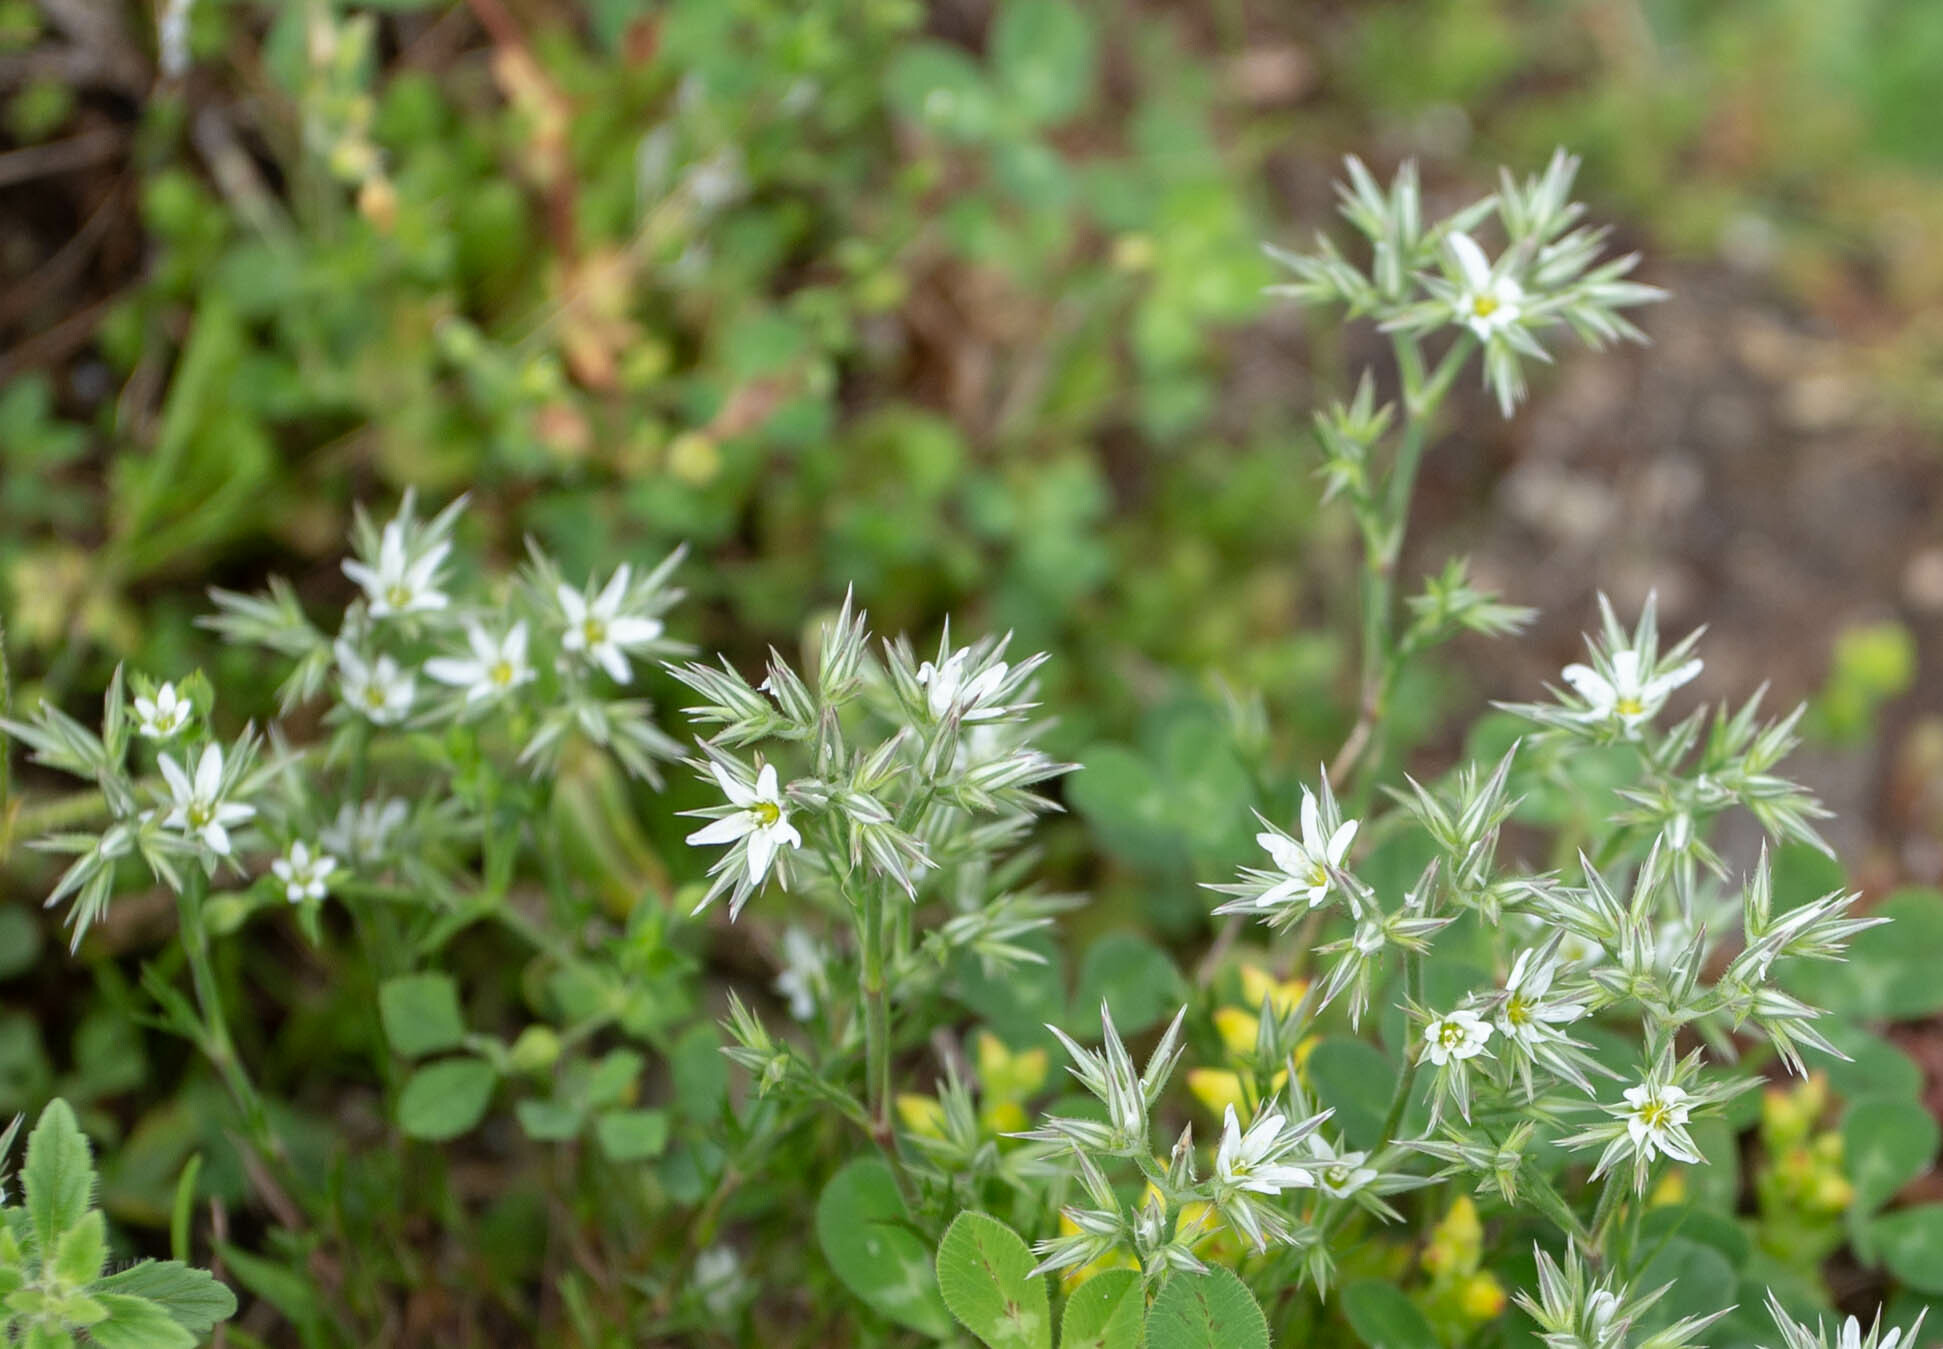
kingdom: Plantae
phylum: Tracheophyta
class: Magnoliopsida
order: Caryophyllales
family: Caryophyllaceae
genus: Minuartia
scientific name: Minuartia glomerata
